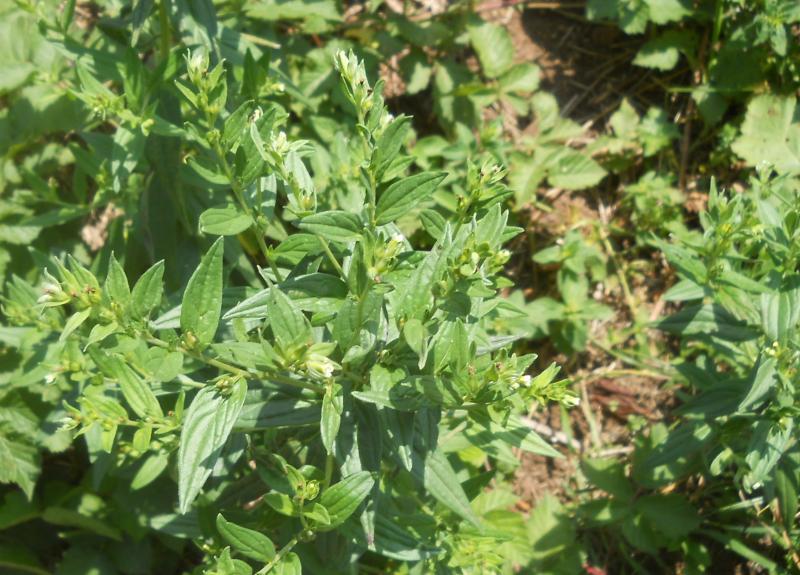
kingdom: Plantae
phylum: Tracheophyta
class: Magnoliopsida
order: Boraginales
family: Boraginaceae
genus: Lithospermum
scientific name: Lithospermum officinale
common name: Common gromwell
